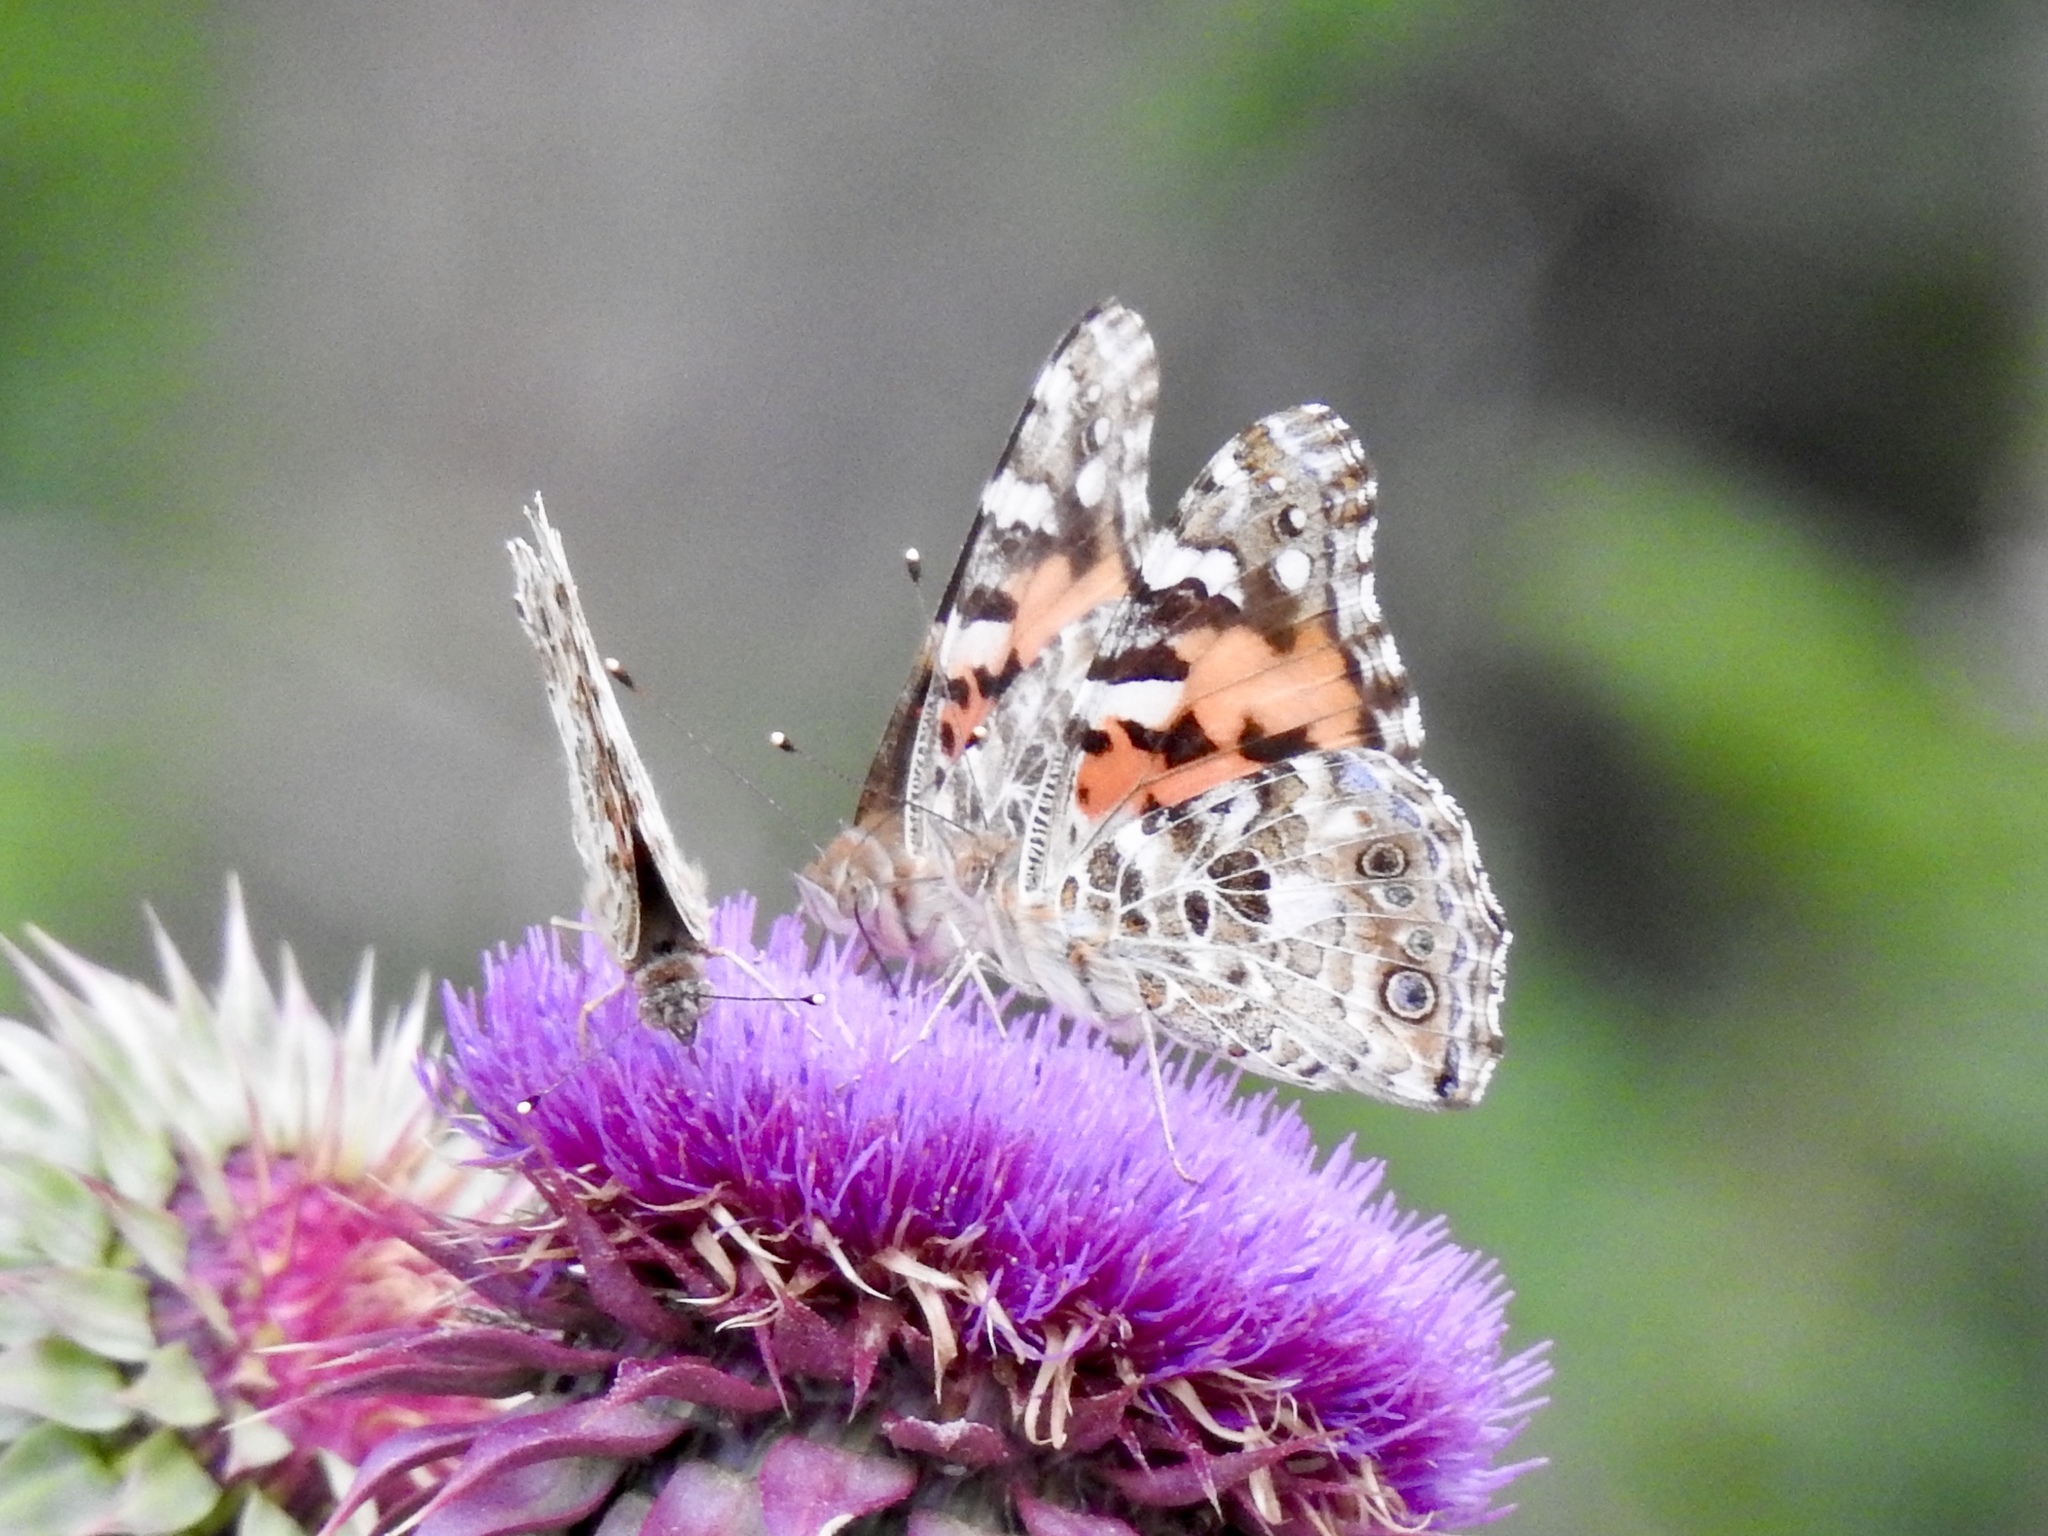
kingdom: Animalia
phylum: Arthropoda
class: Insecta
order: Lepidoptera
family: Nymphalidae
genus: Vanessa
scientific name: Vanessa cardui
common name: Painted lady
